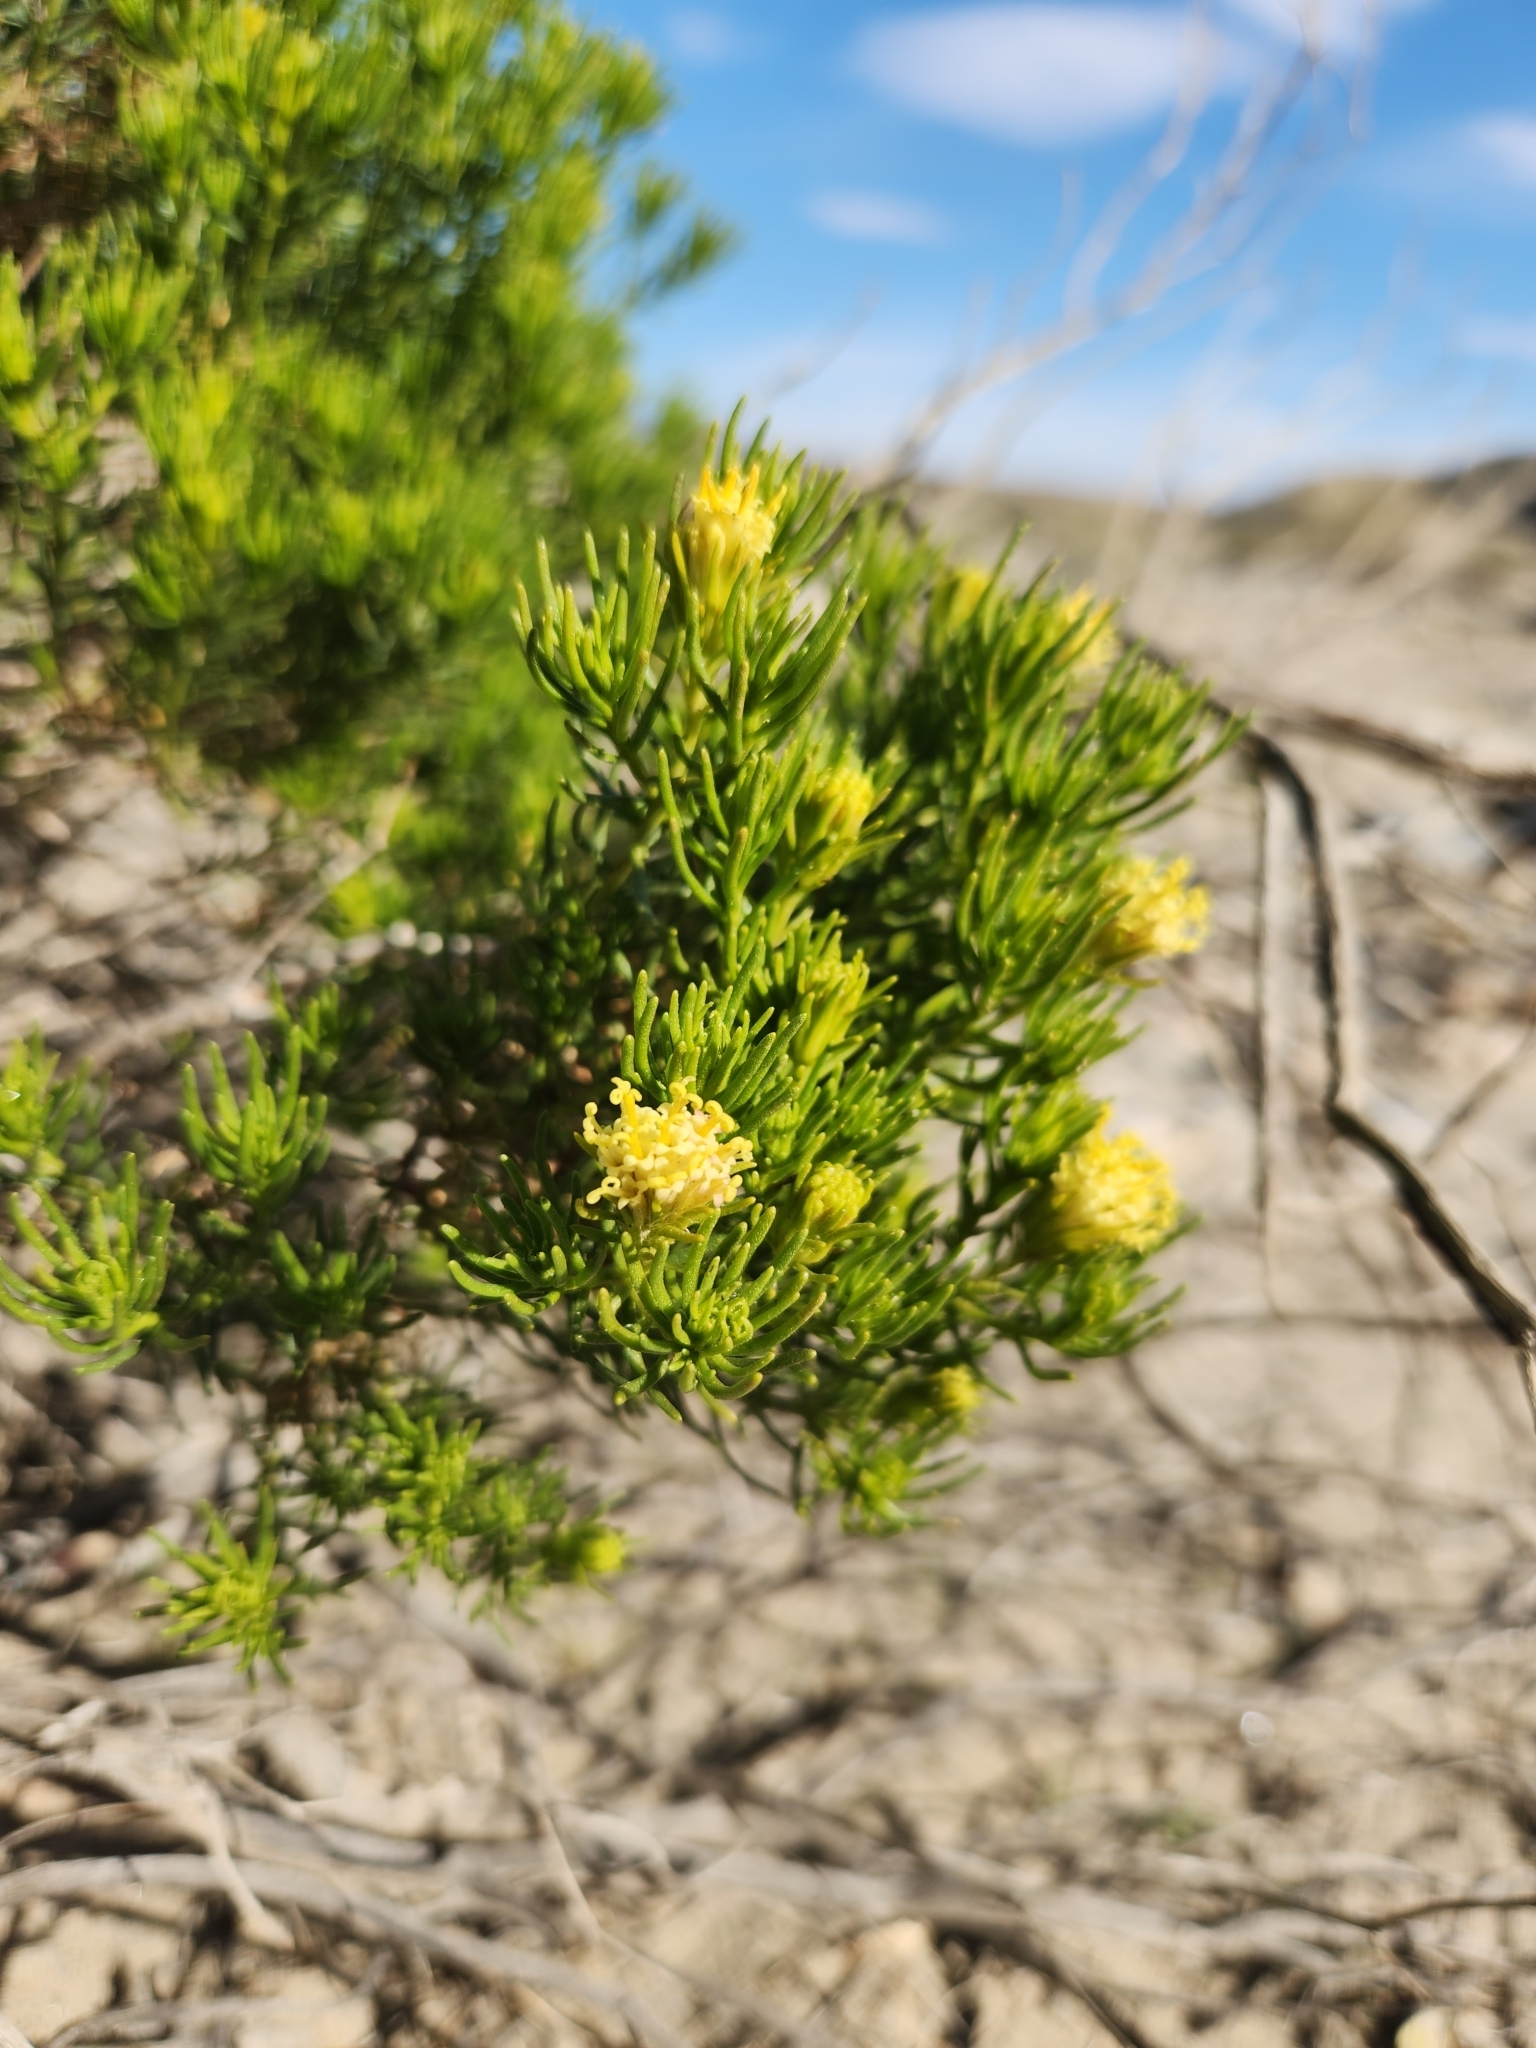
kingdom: Plantae
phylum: Tracheophyta
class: Magnoliopsida
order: Asterales
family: Asteraceae
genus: Peucephyllum
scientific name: Peucephyllum schottii
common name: Pygmy-cedar
